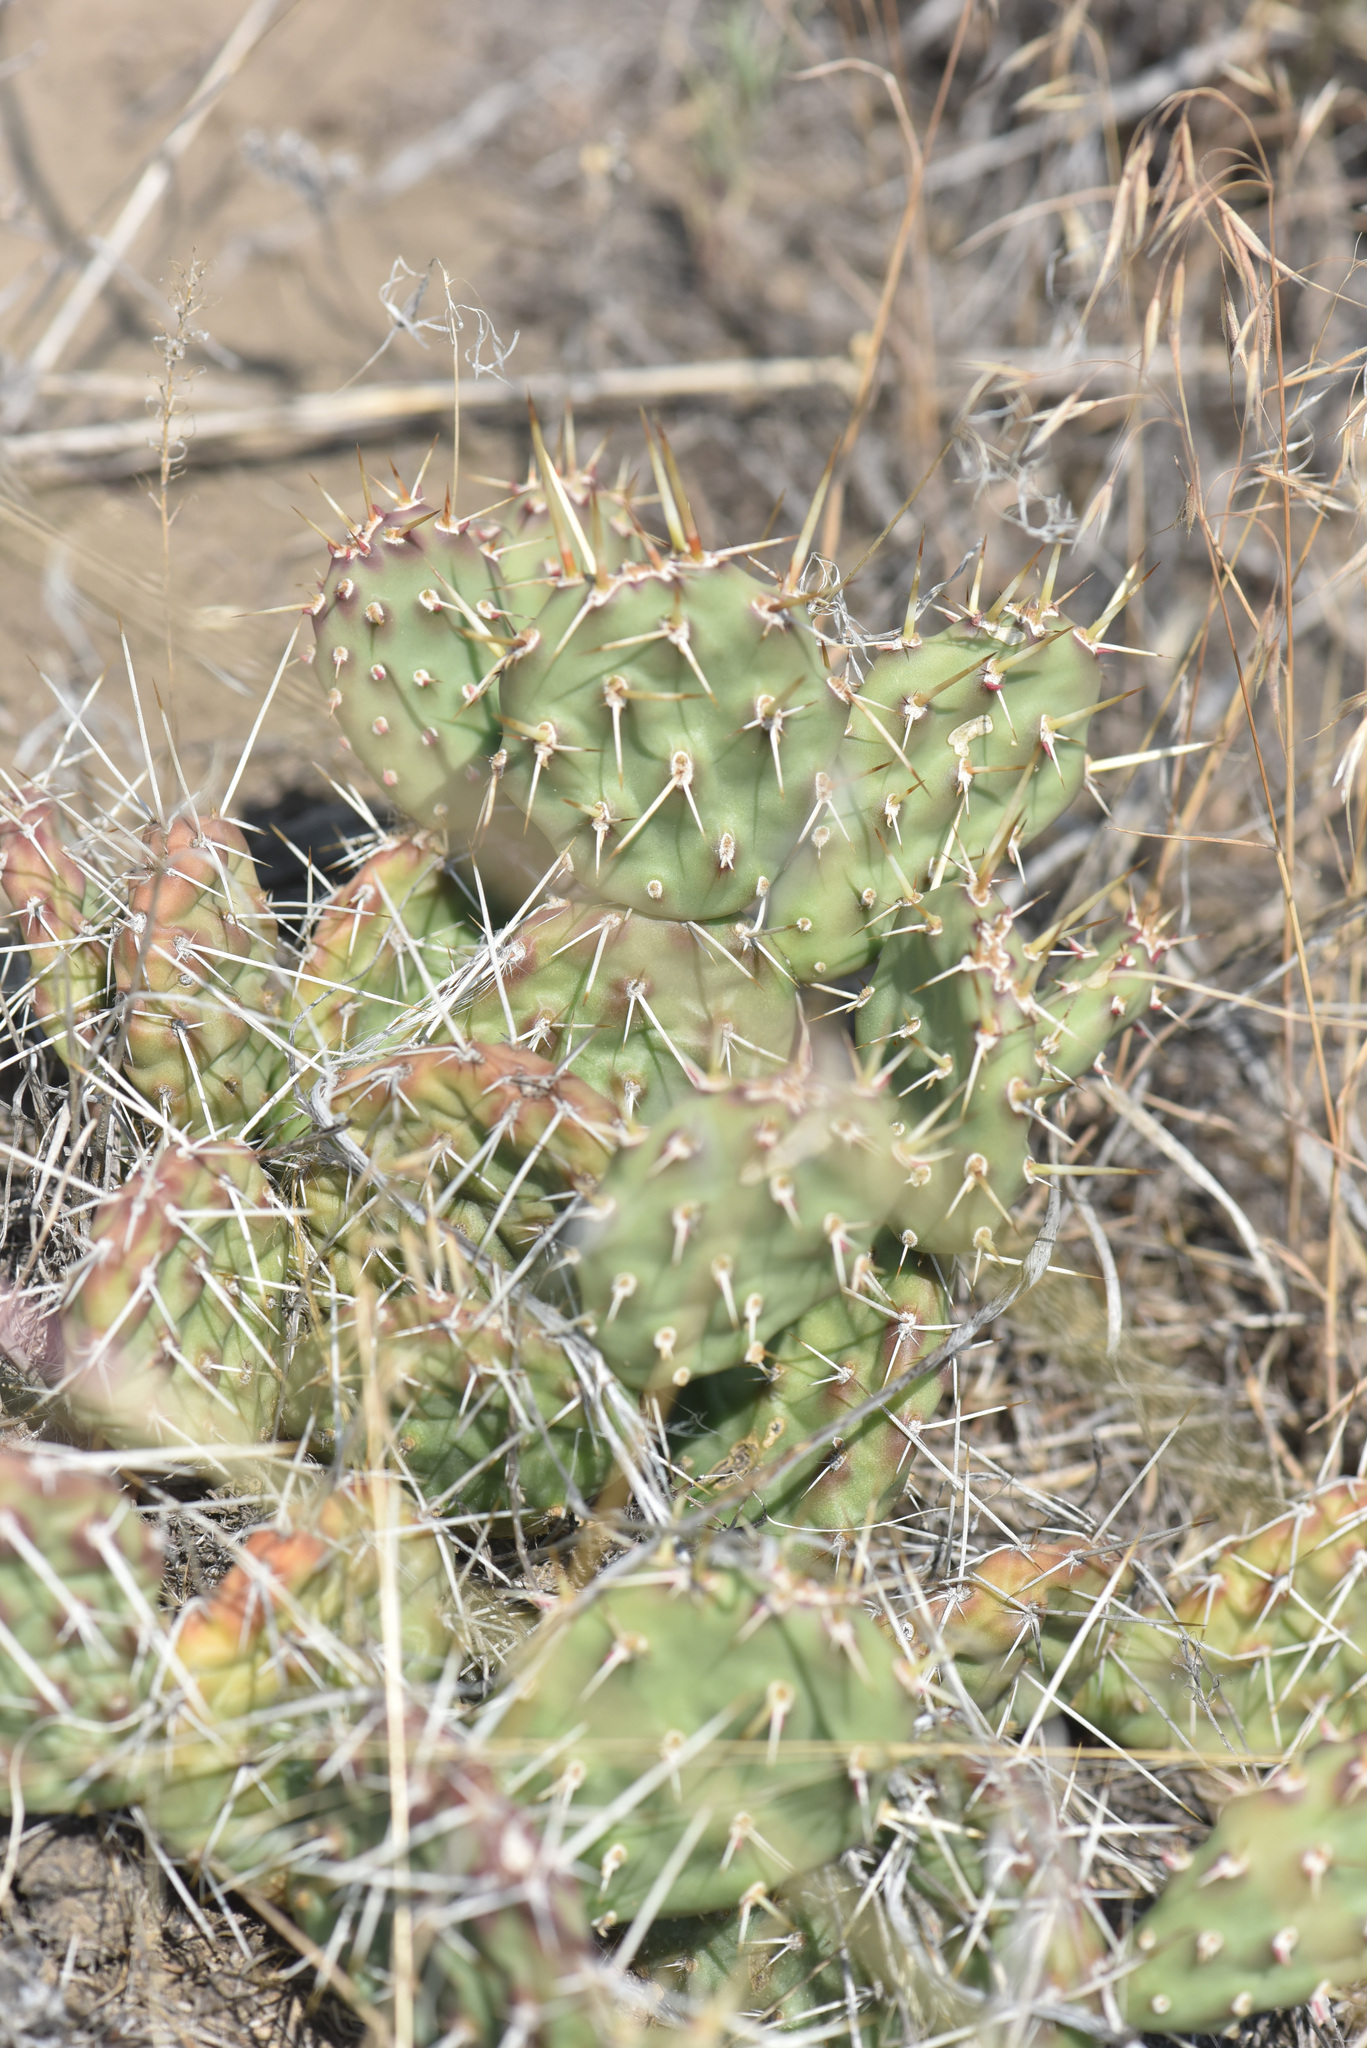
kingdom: Plantae
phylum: Tracheophyta
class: Magnoliopsida
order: Caryophyllales
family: Cactaceae
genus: Opuntia
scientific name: Opuntia columbiana
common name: Columbia prickly-pear
